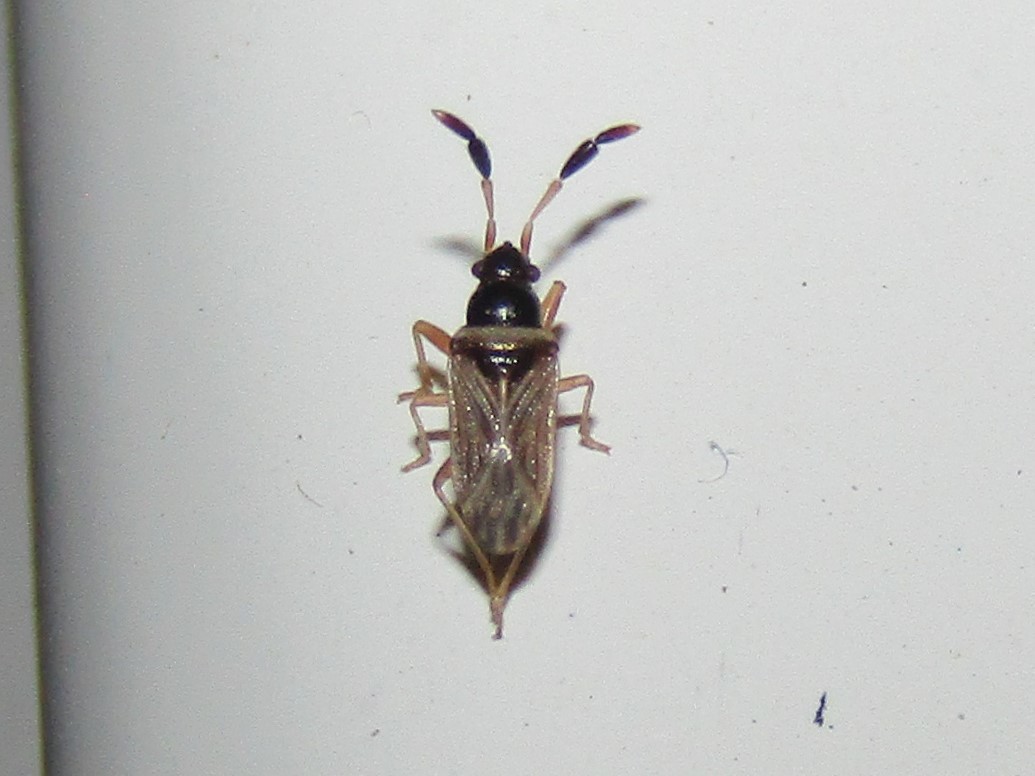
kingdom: Animalia
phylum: Arthropoda
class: Insecta
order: Hemiptera
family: Rhyparochromidae
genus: Ptochiomera
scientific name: Ptochiomera nodosa
